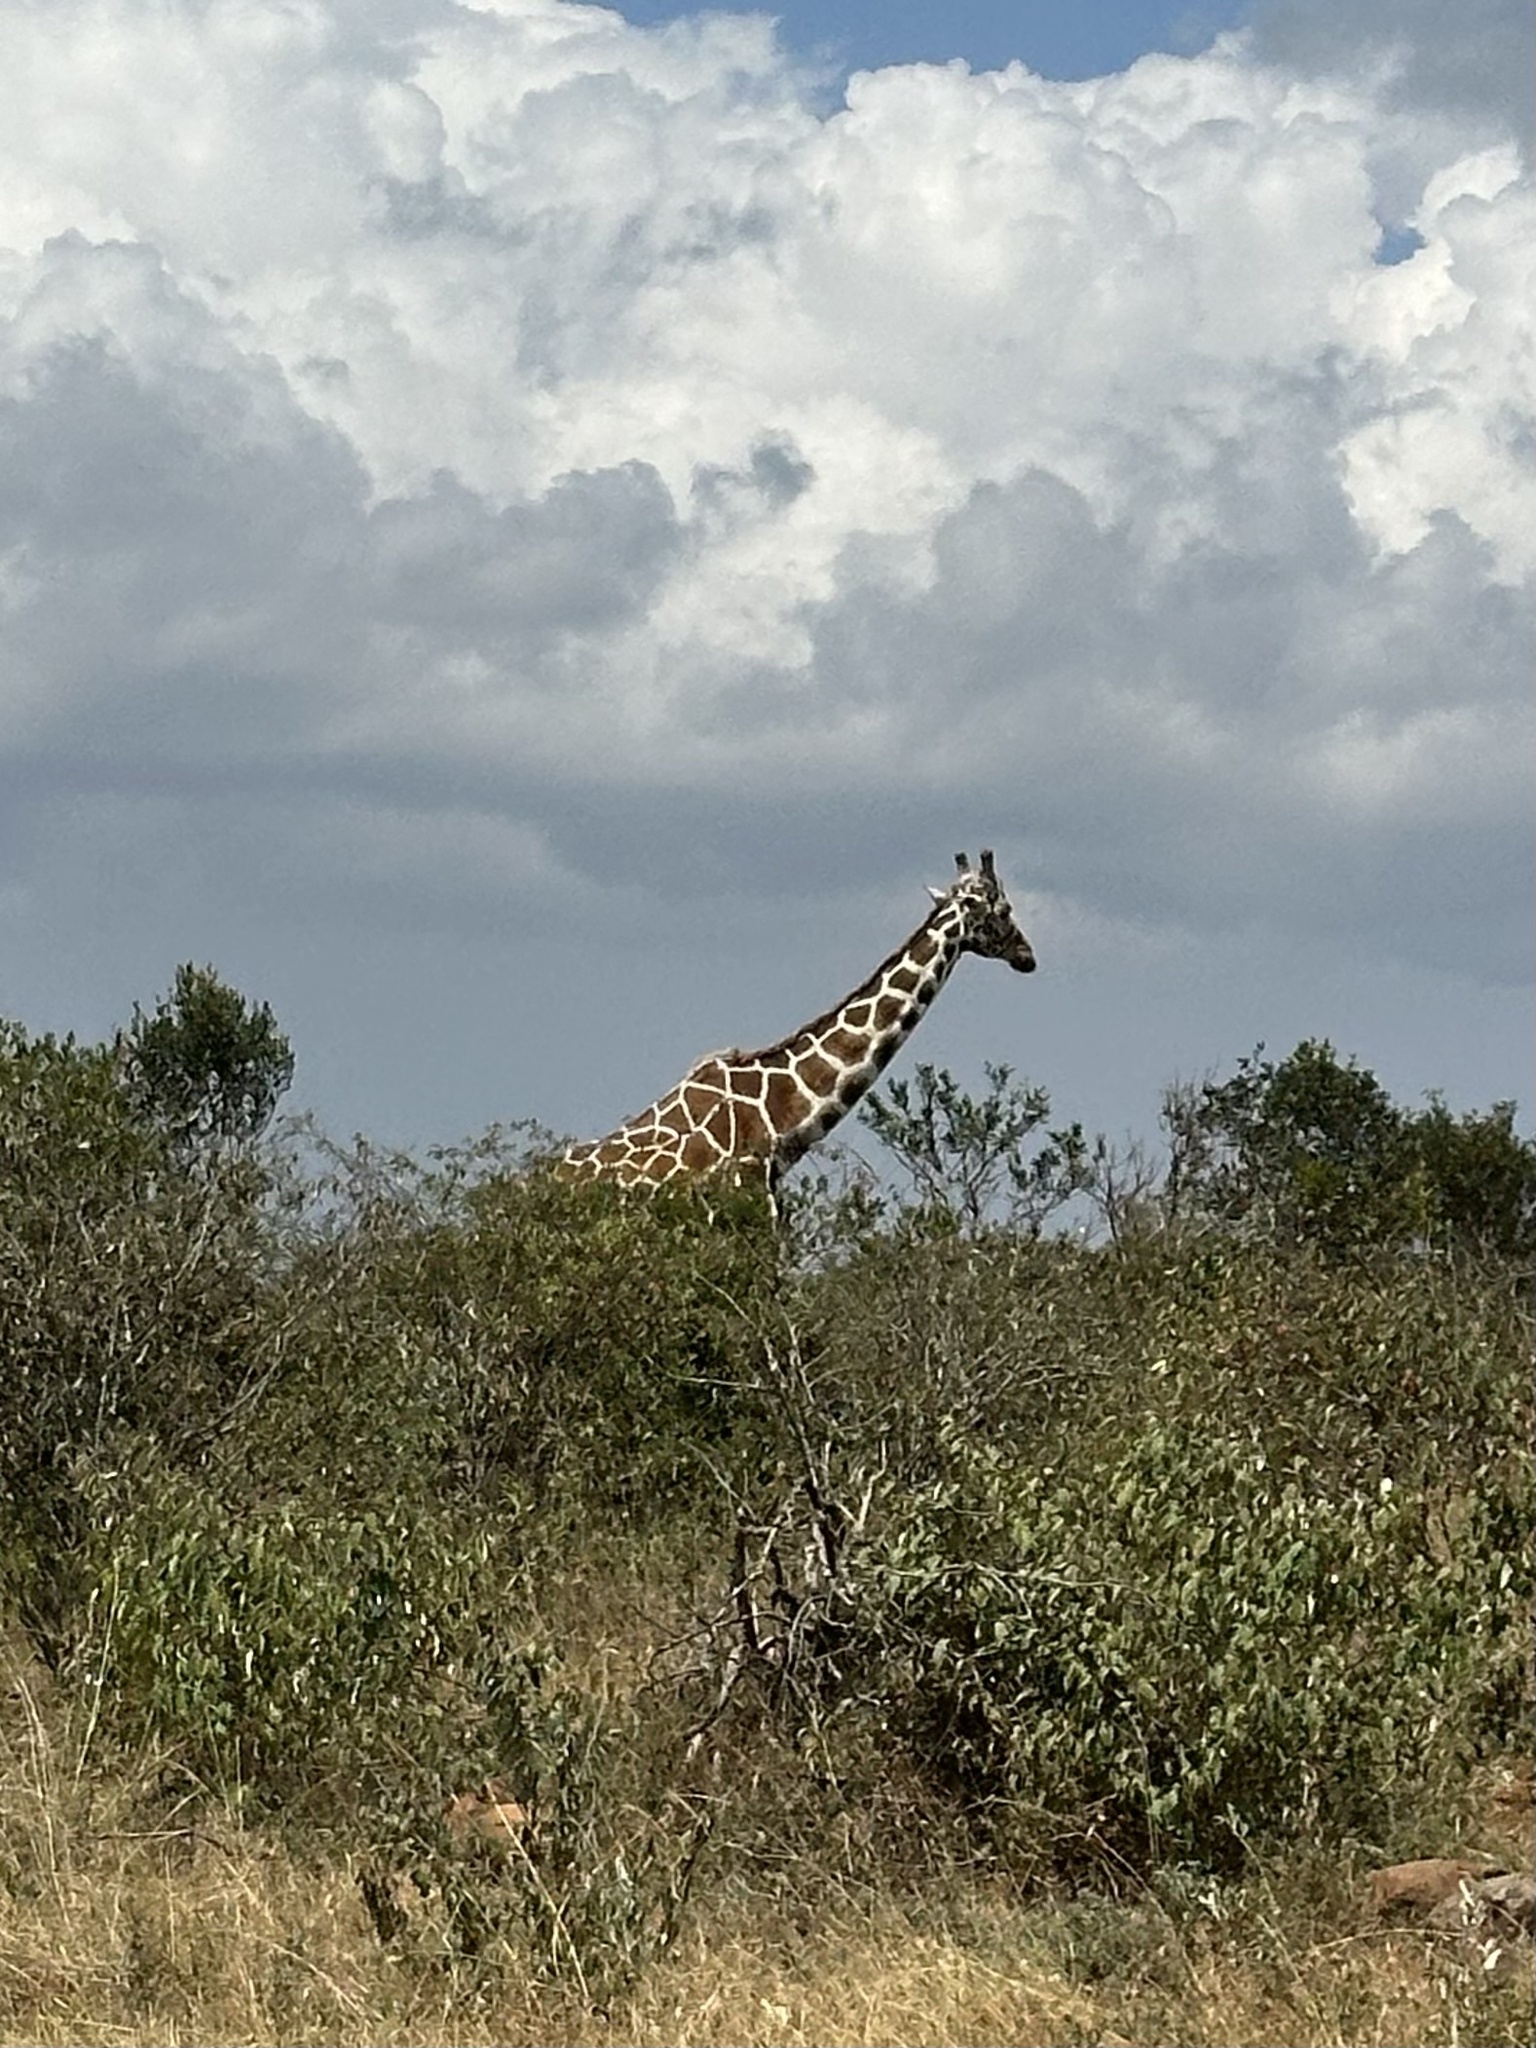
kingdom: Animalia
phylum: Chordata
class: Mammalia
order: Artiodactyla
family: Giraffidae
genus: Giraffa
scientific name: Giraffa reticulata
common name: Reticulated giraffe
